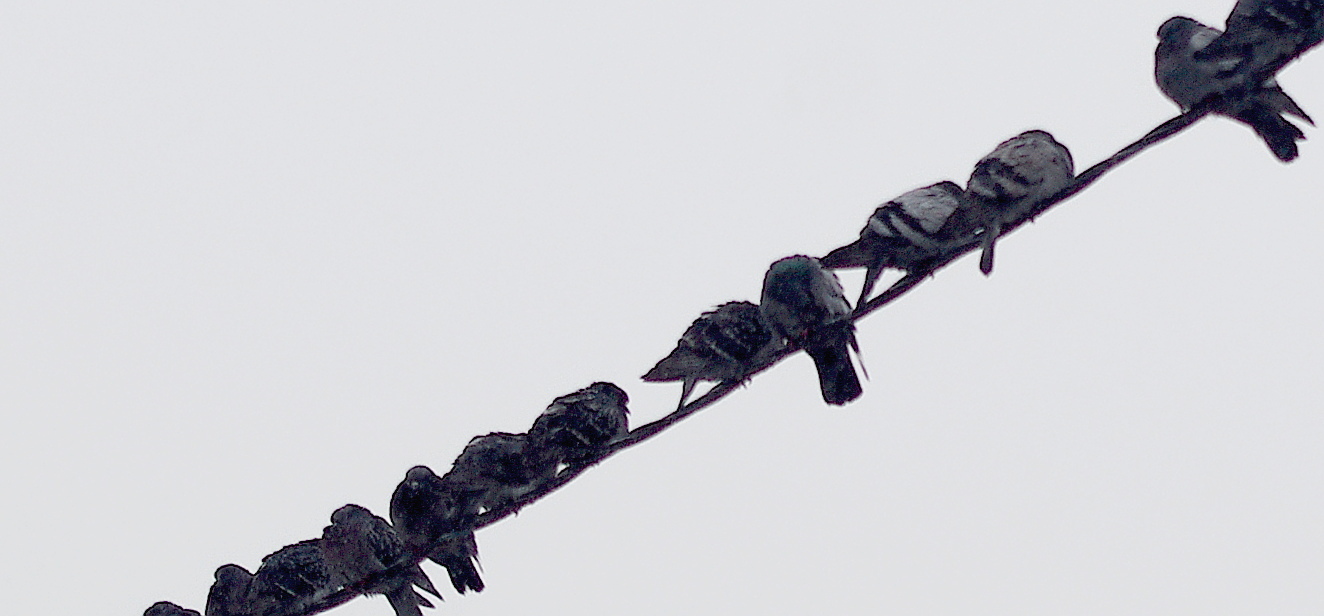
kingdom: Animalia
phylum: Chordata
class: Aves
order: Columbiformes
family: Columbidae
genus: Columba
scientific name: Columba livia
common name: Rock pigeon
